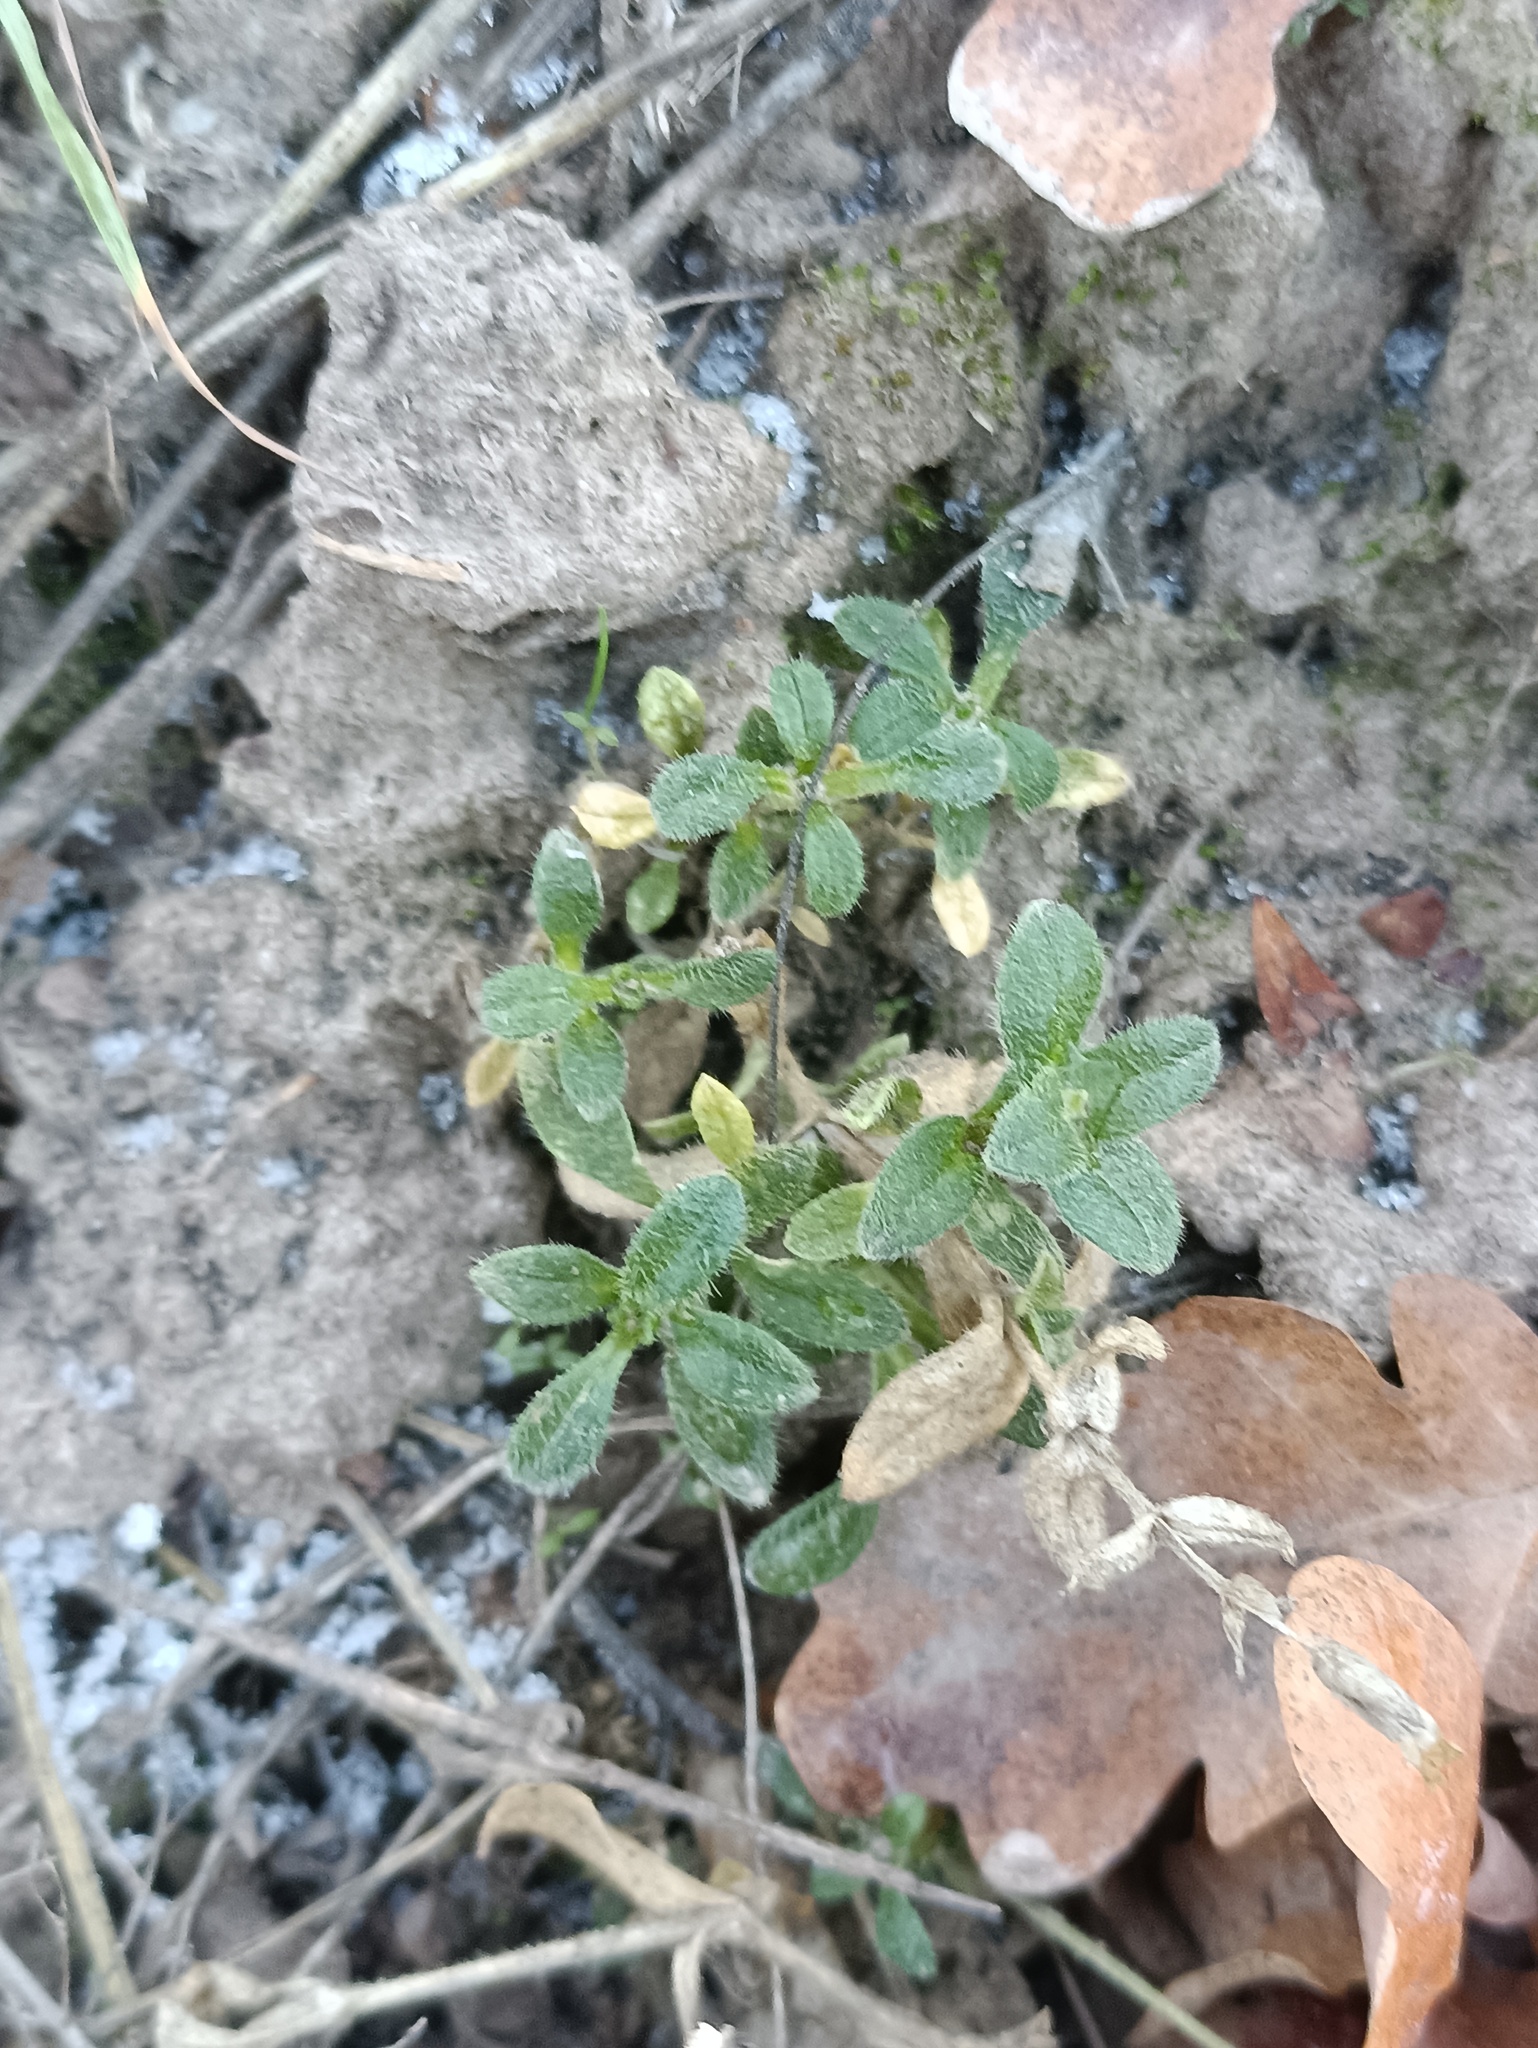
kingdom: Plantae
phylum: Tracheophyta
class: Magnoliopsida
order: Caryophyllales
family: Caryophyllaceae
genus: Cerastium
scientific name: Cerastium holosteoides
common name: Big chickweed
